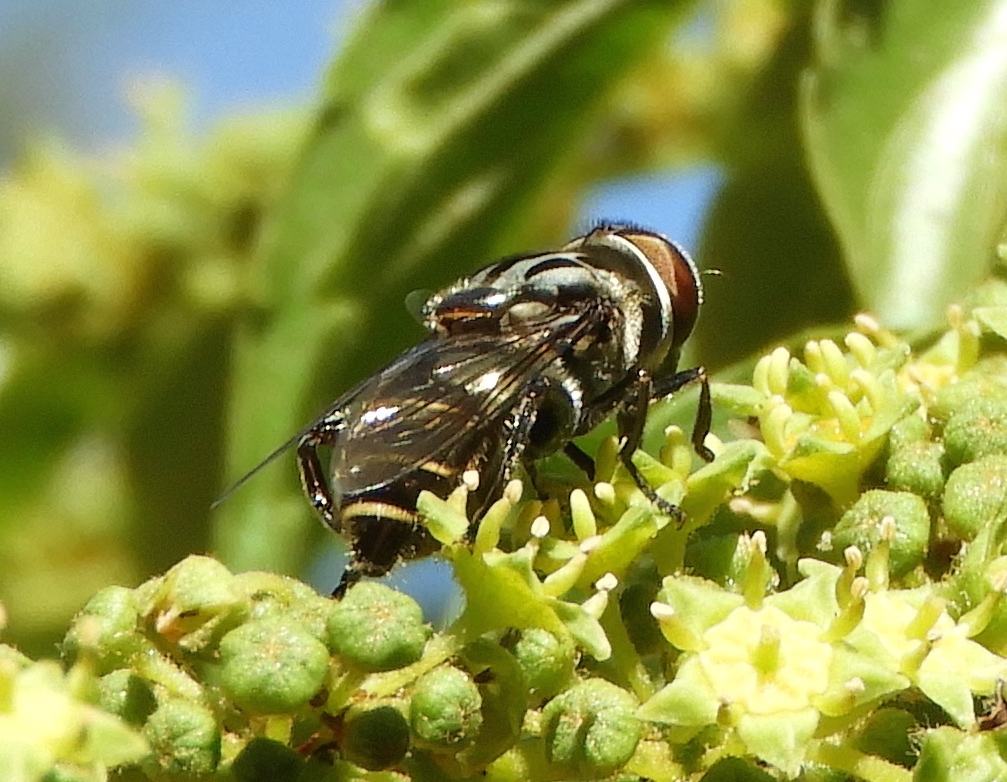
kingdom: Animalia
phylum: Arthropoda
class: Insecta
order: Diptera
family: Syrphidae
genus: Palpada
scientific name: Palpada furcata
